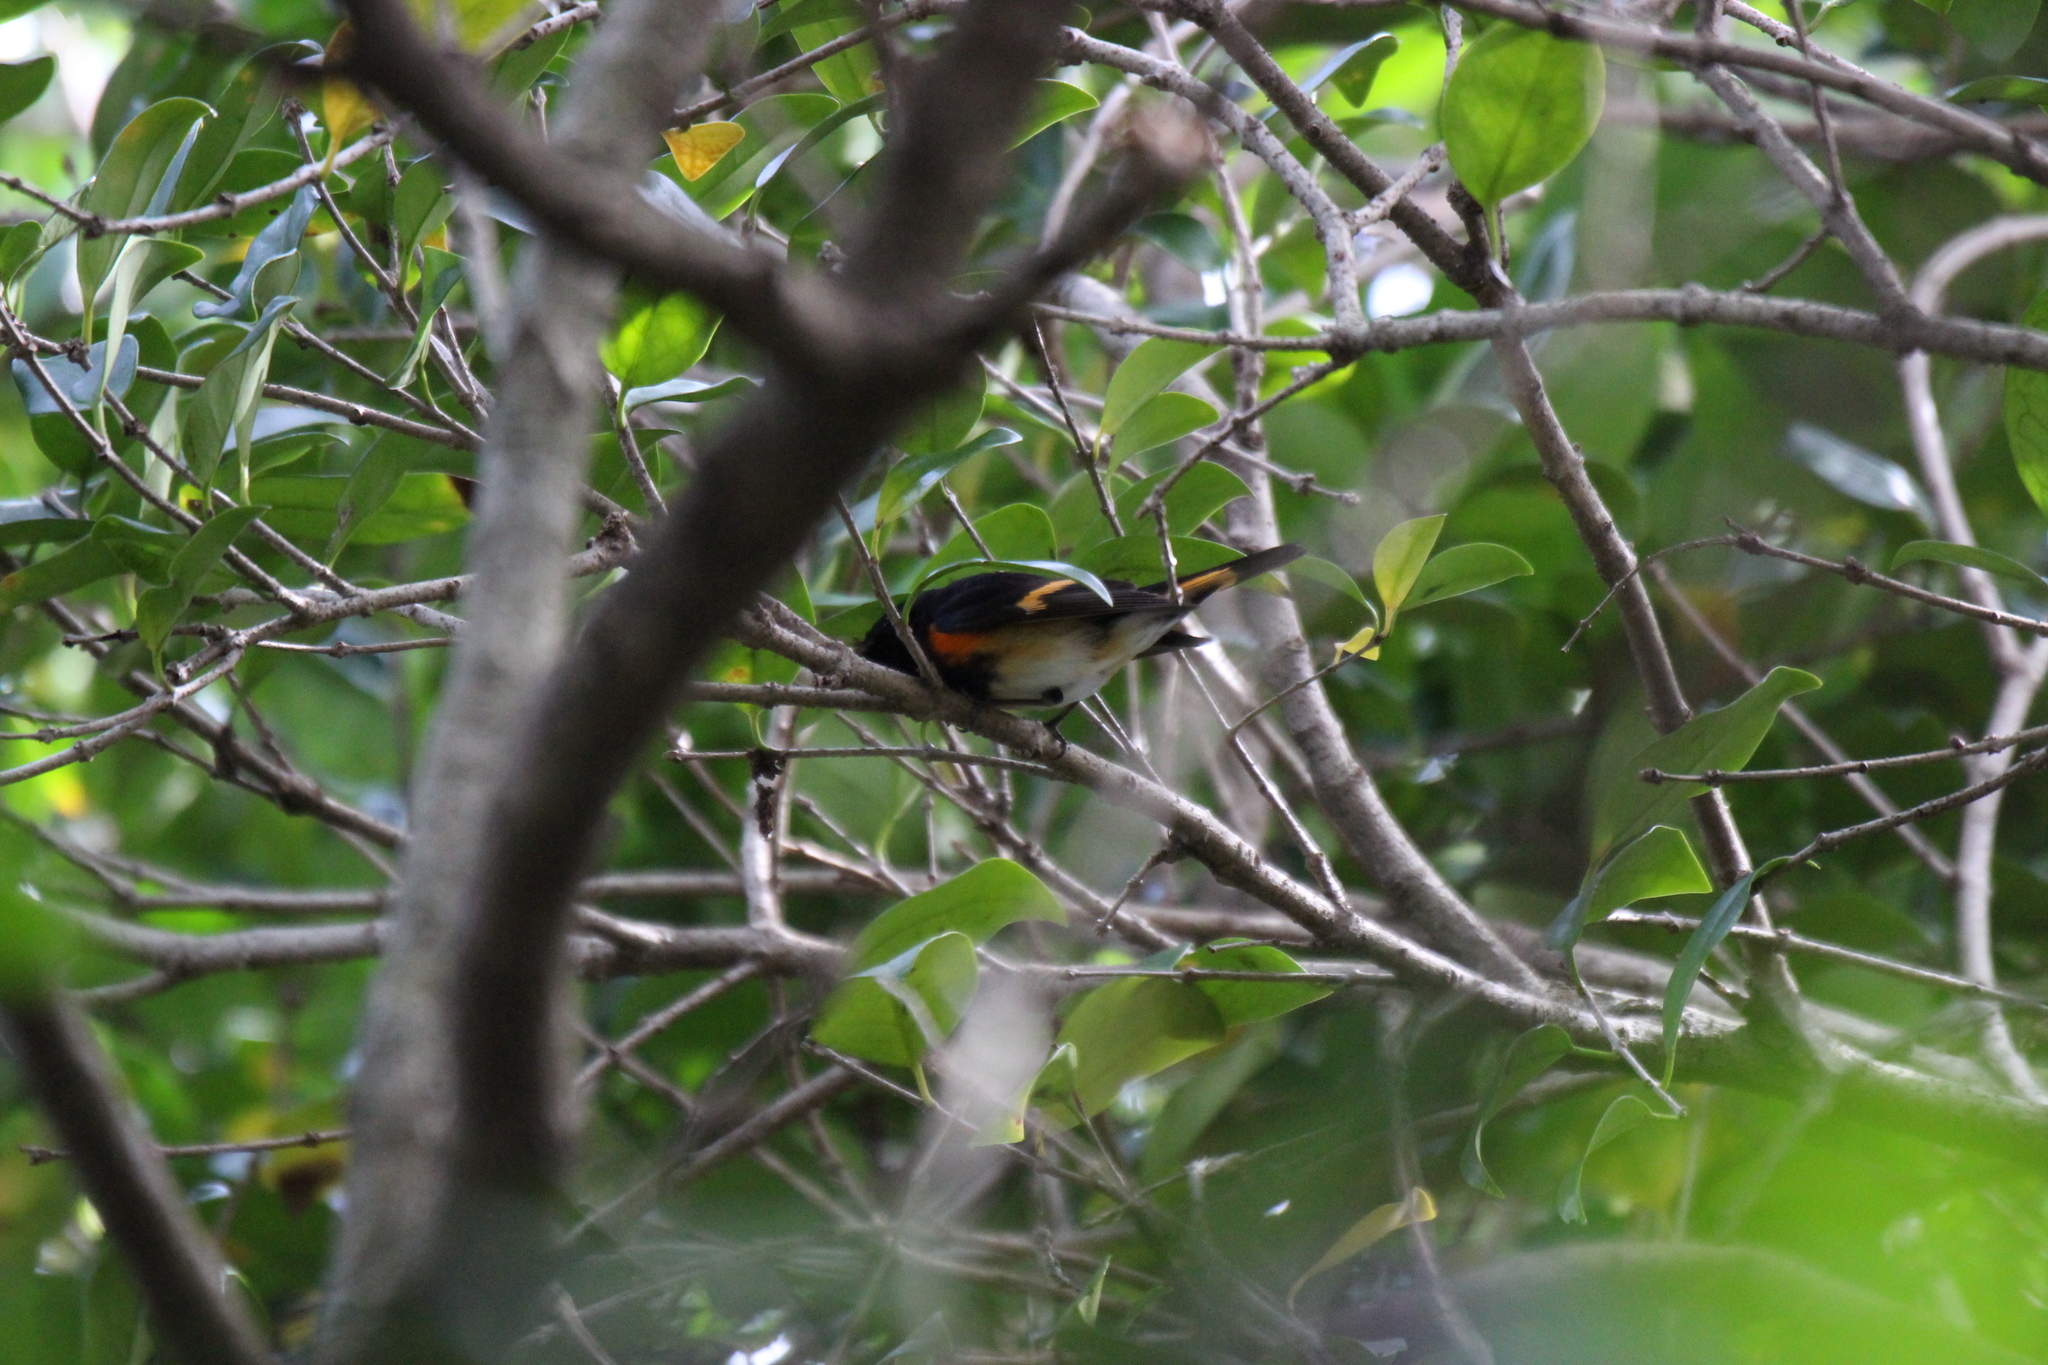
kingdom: Animalia
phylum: Chordata
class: Aves
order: Passeriformes
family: Parulidae
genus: Setophaga
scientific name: Setophaga ruticilla
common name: American redstart
